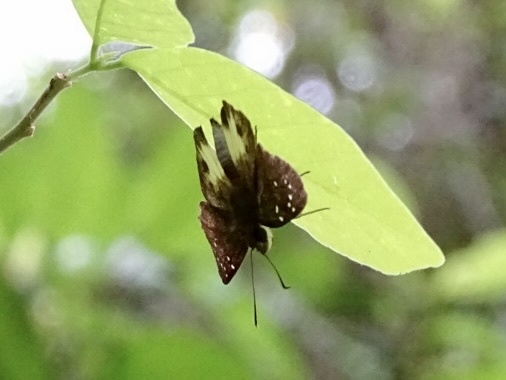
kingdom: Animalia
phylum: Arthropoda
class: Insecta
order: Lepidoptera
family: Hesperiidae
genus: Tagiades
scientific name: Tagiades litigiosa
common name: Water snow flat
